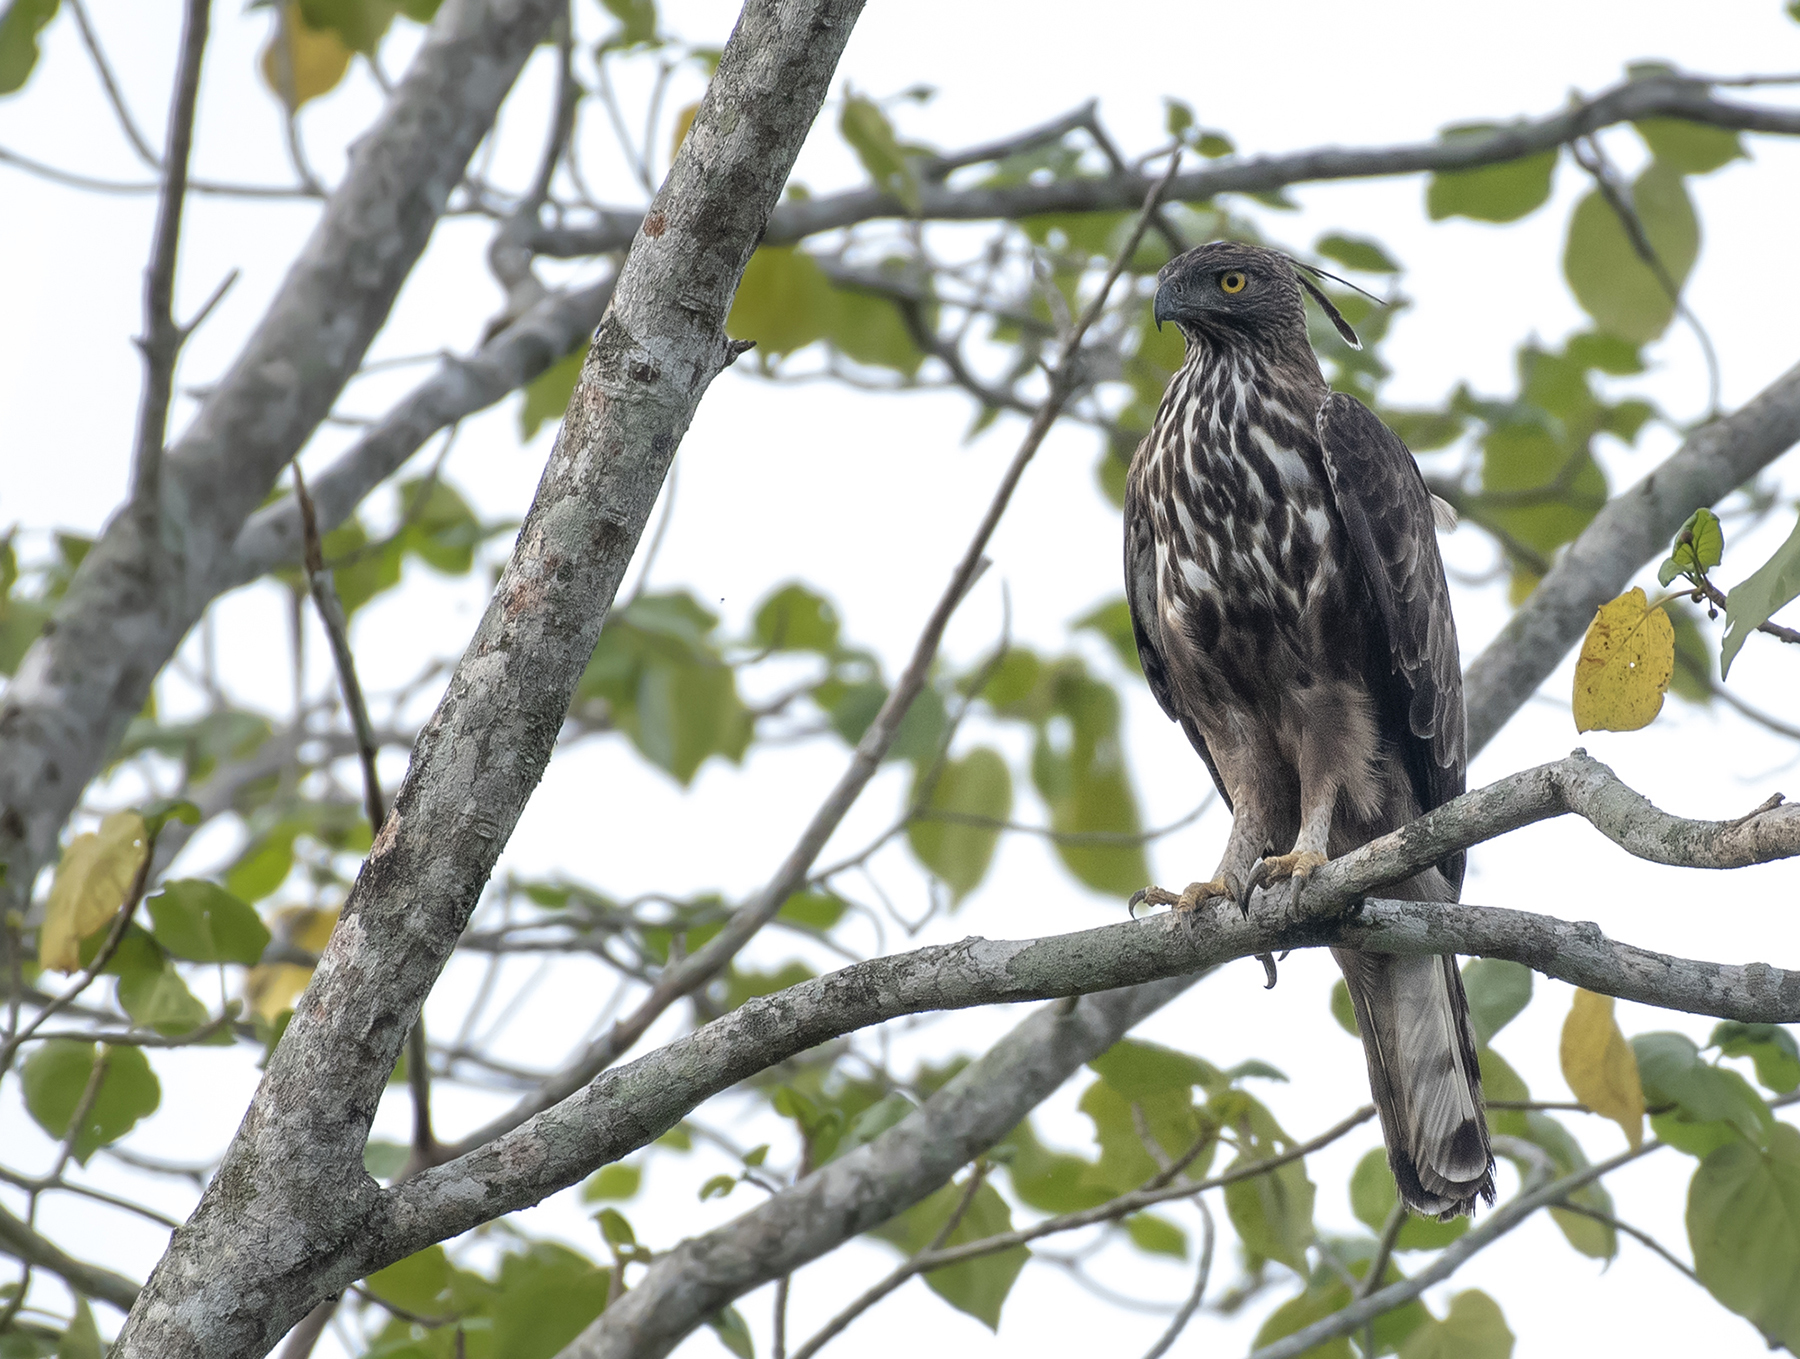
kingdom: Animalia
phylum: Chordata
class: Aves
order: Accipitriformes
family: Accipitridae
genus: Nisaetus
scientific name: Nisaetus cirrhatus
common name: Changeable hawk-eagle
